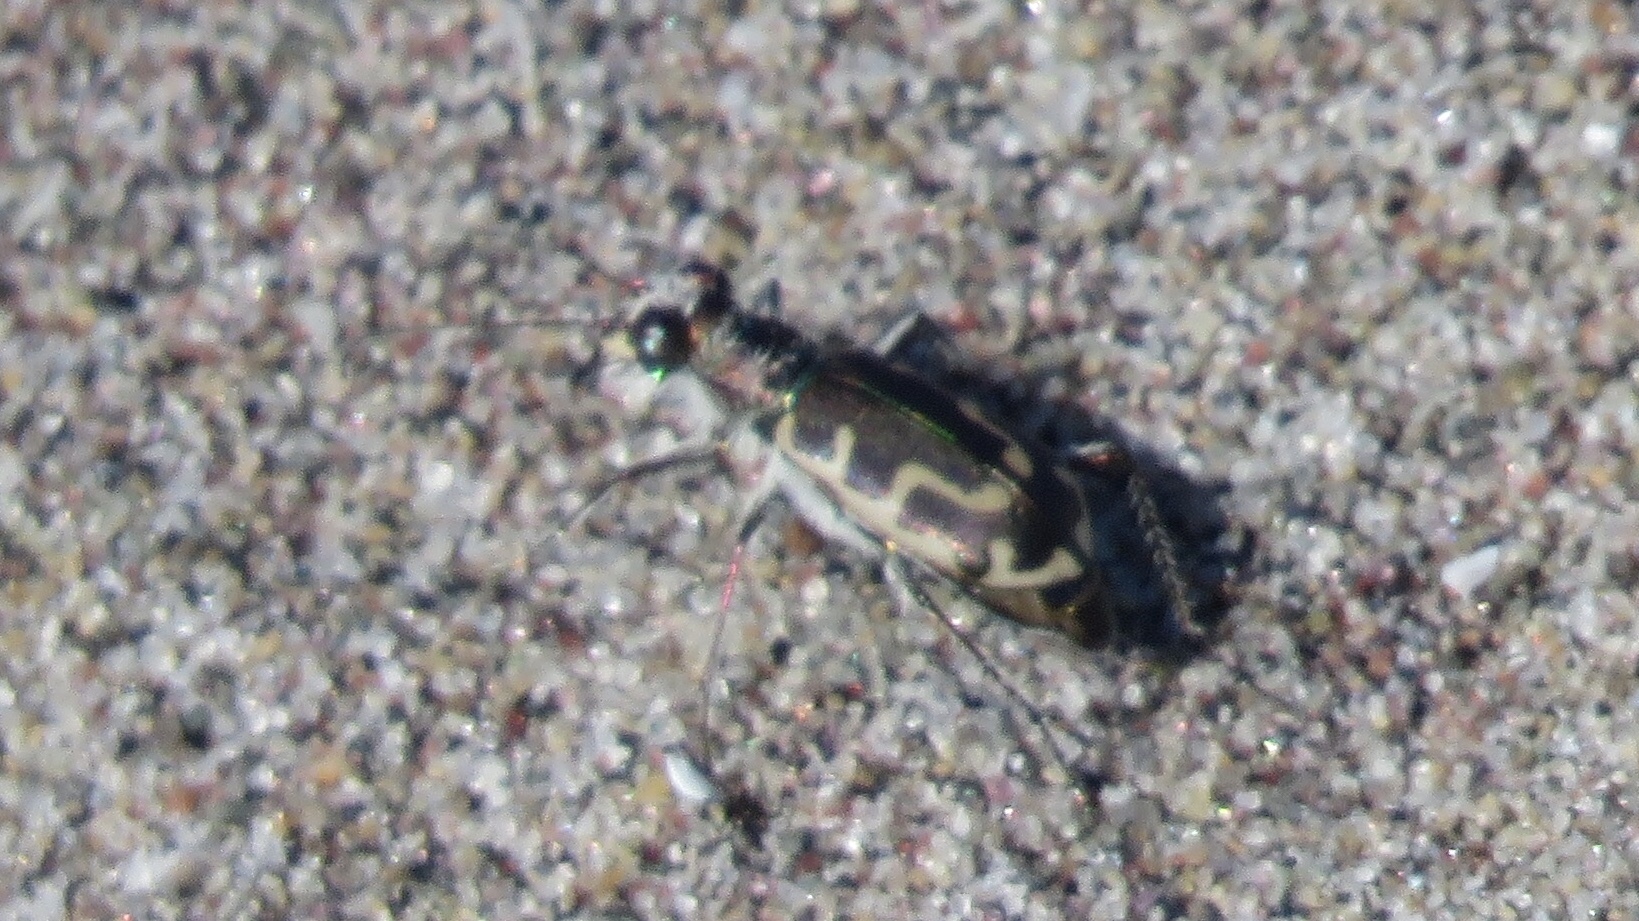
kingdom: Animalia
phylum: Arthropoda
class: Insecta
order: Coleoptera
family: Carabidae
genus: Cicindela
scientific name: Cicindela hirticollis
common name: Hairy-necked tiger beetle
